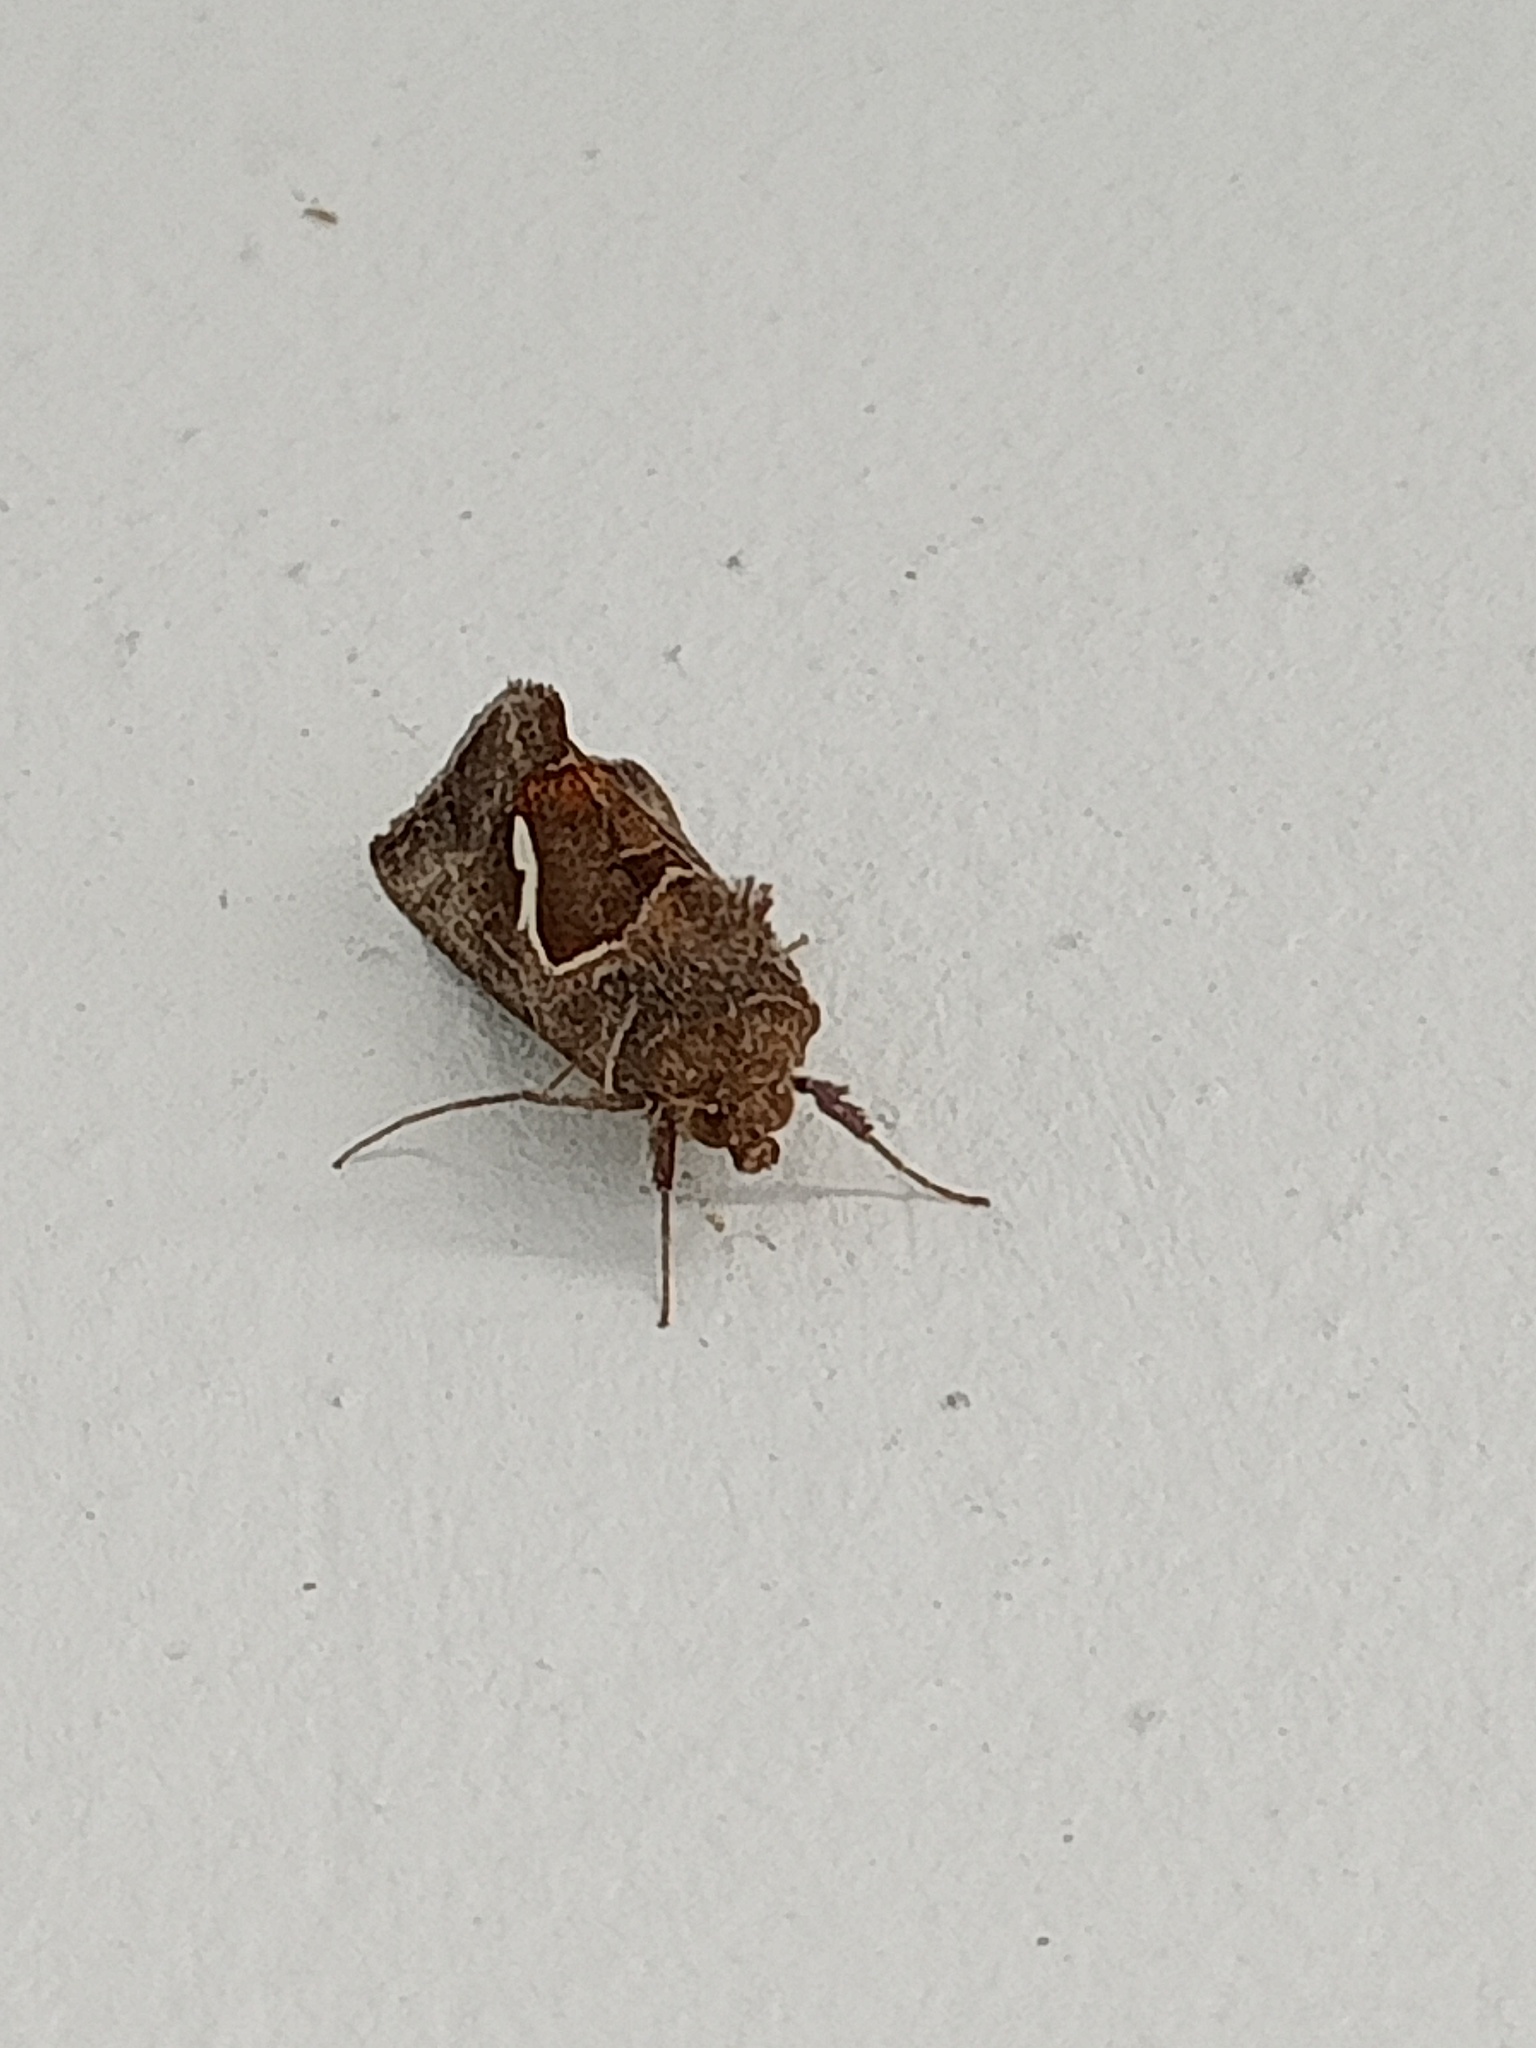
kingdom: Animalia
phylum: Arthropoda
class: Insecta
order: Lepidoptera
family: Noctuidae
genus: Macdunnoughia
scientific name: Macdunnoughia confusa
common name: Dewick's plusia
